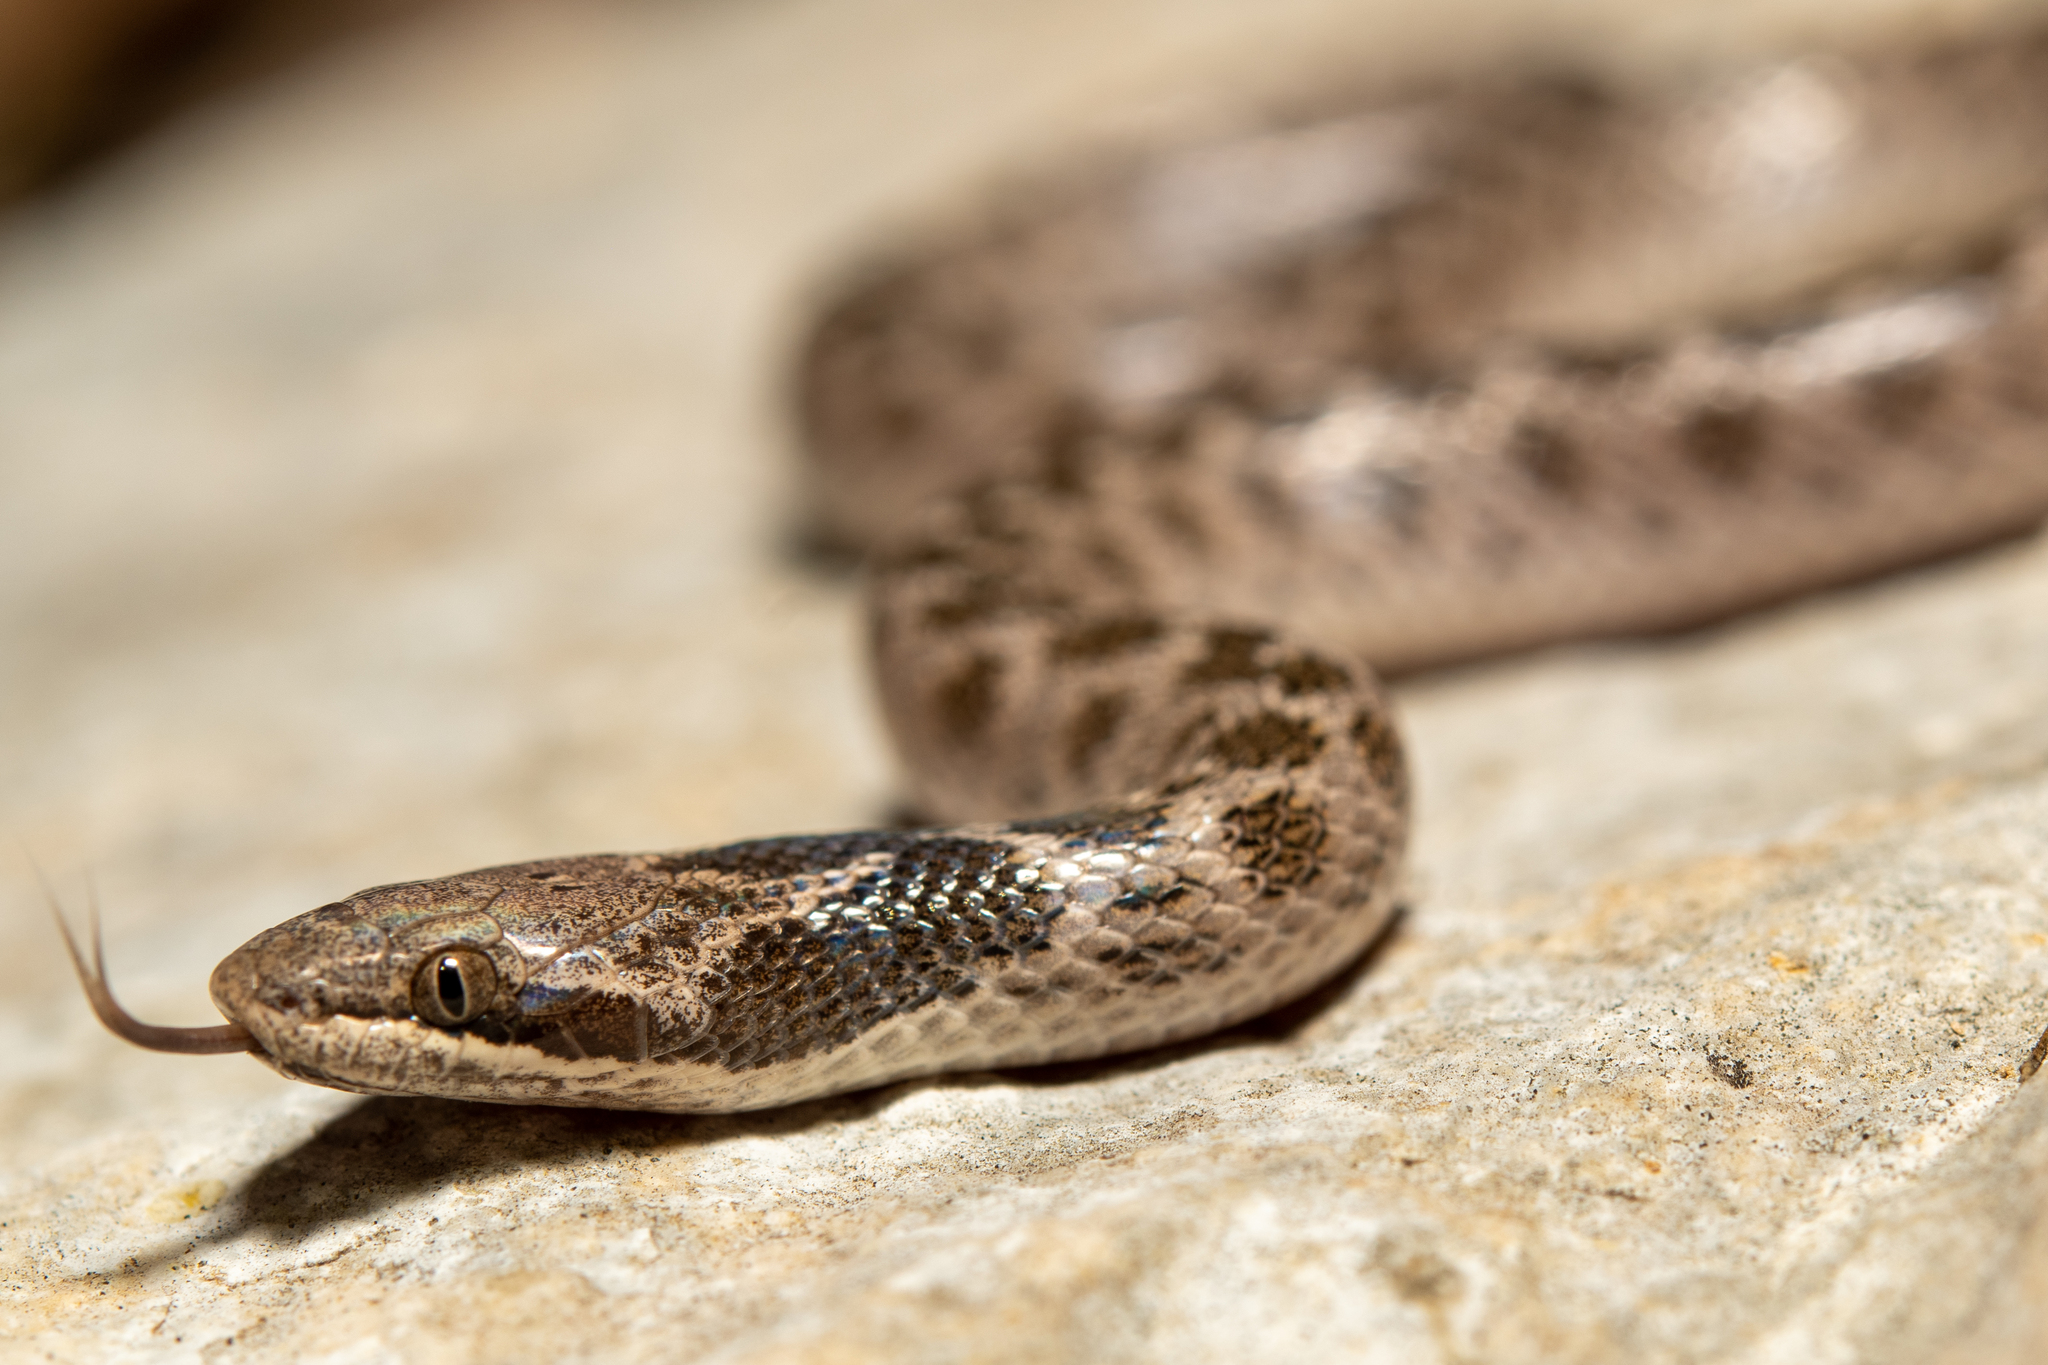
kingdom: Animalia
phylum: Chordata
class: Squamata
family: Colubridae
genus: Hypsiglena
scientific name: Hypsiglena jani
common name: Chihuahuan nightsnake
